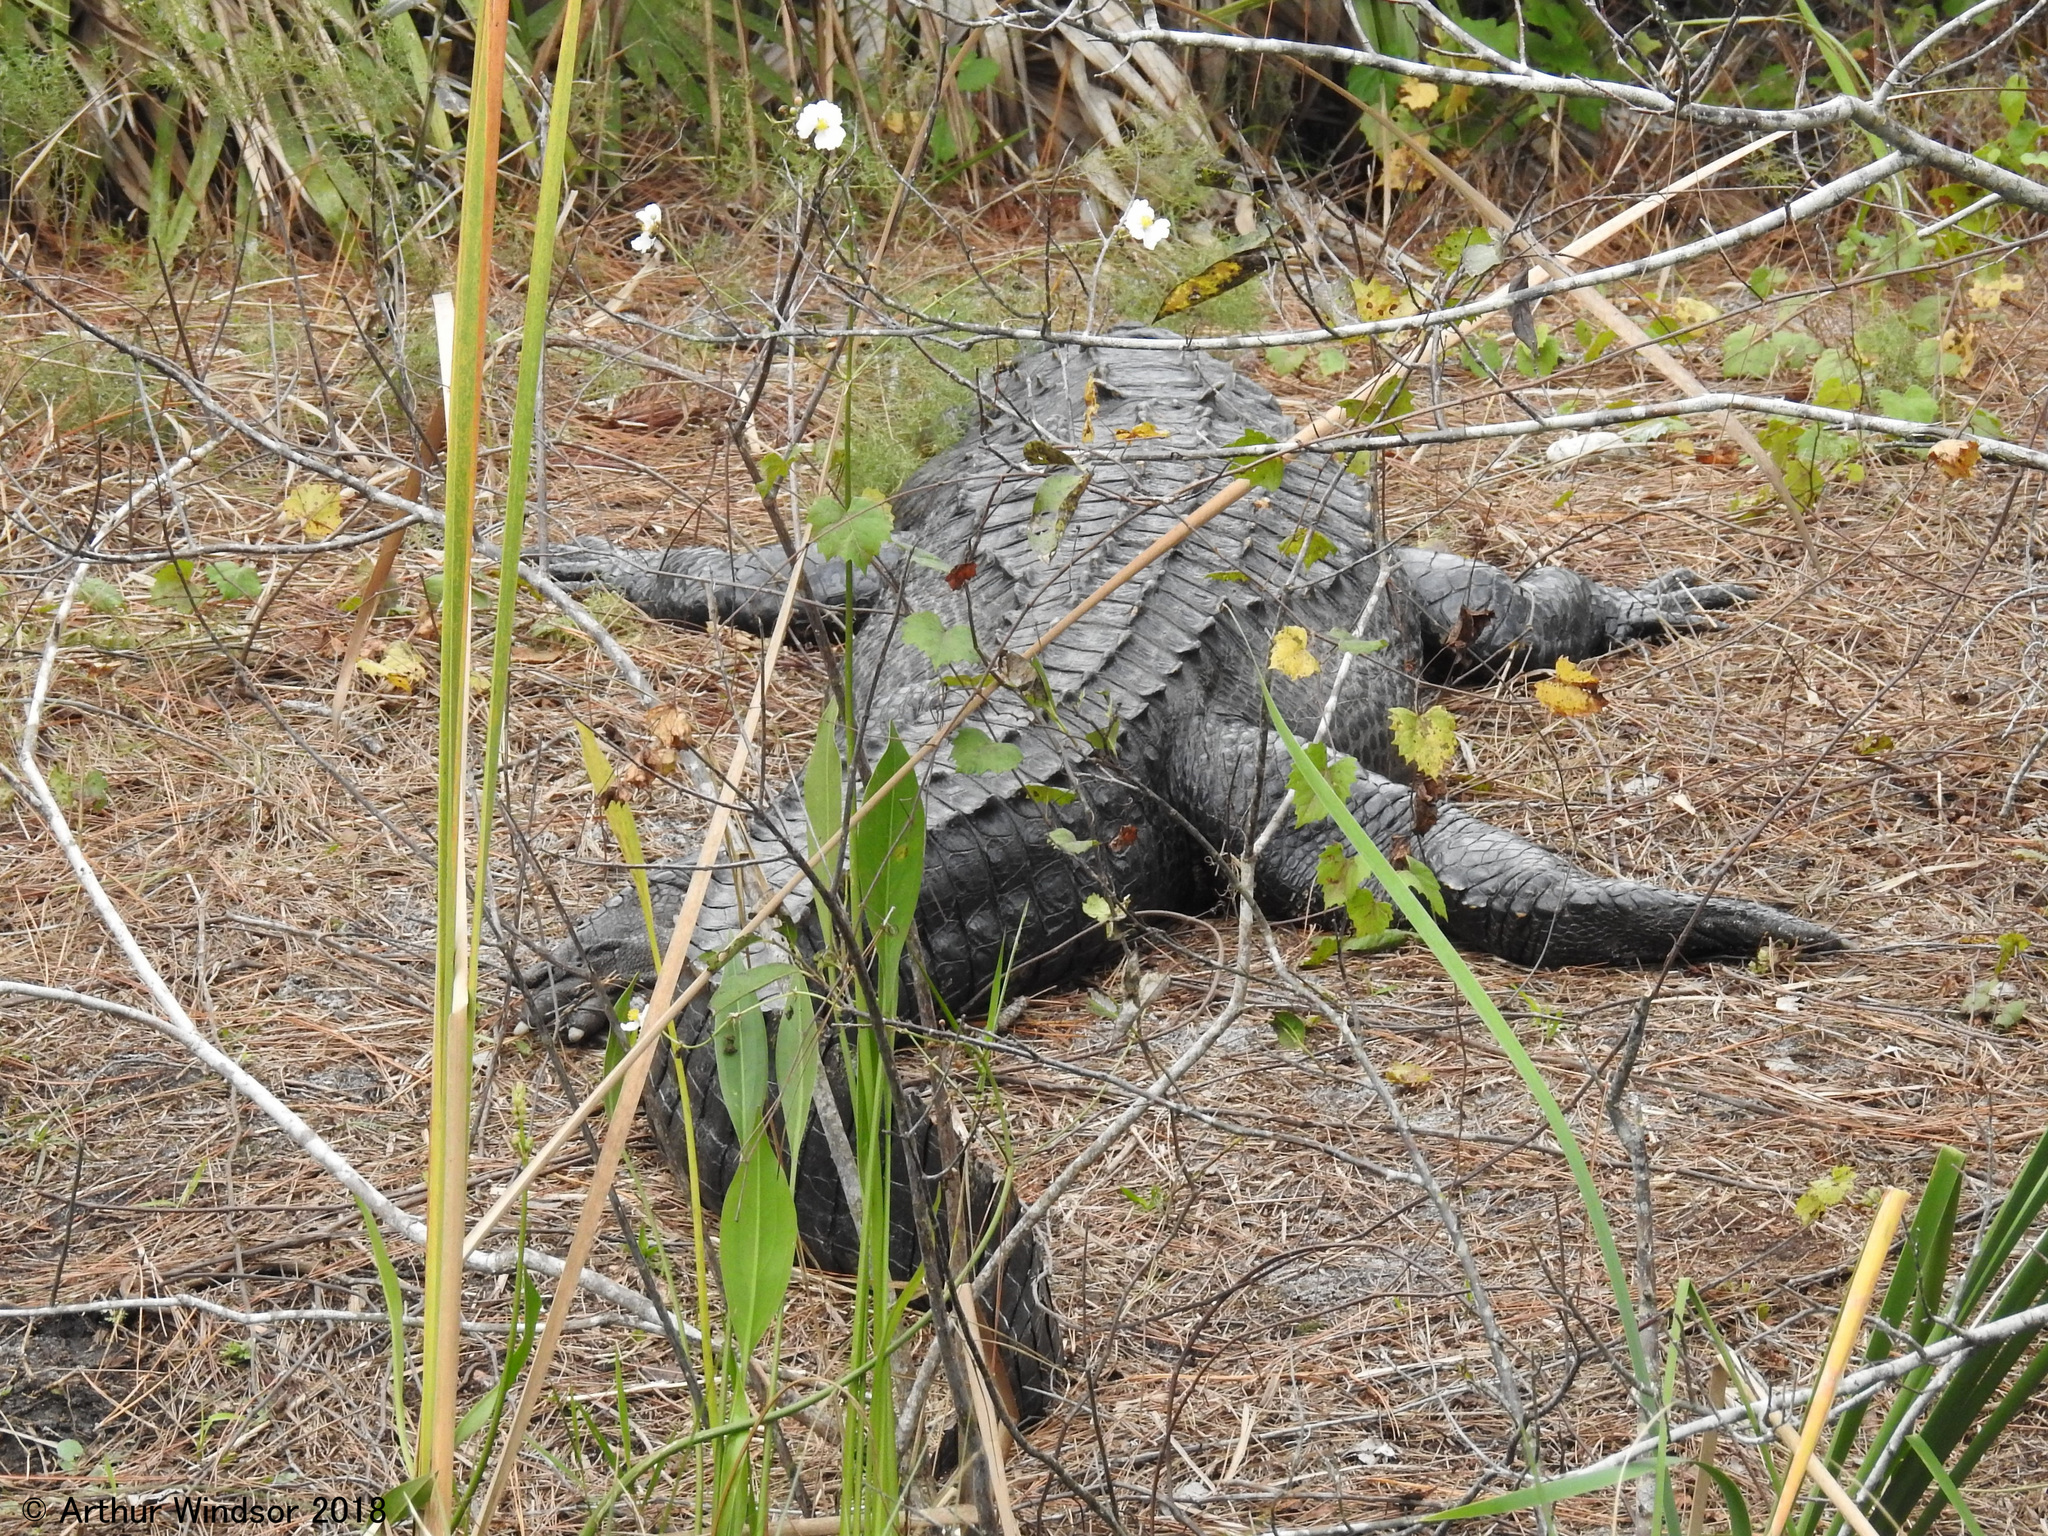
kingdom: Animalia
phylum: Chordata
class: Crocodylia
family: Alligatoridae
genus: Alligator
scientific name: Alligator mississippiensis
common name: American alligator
